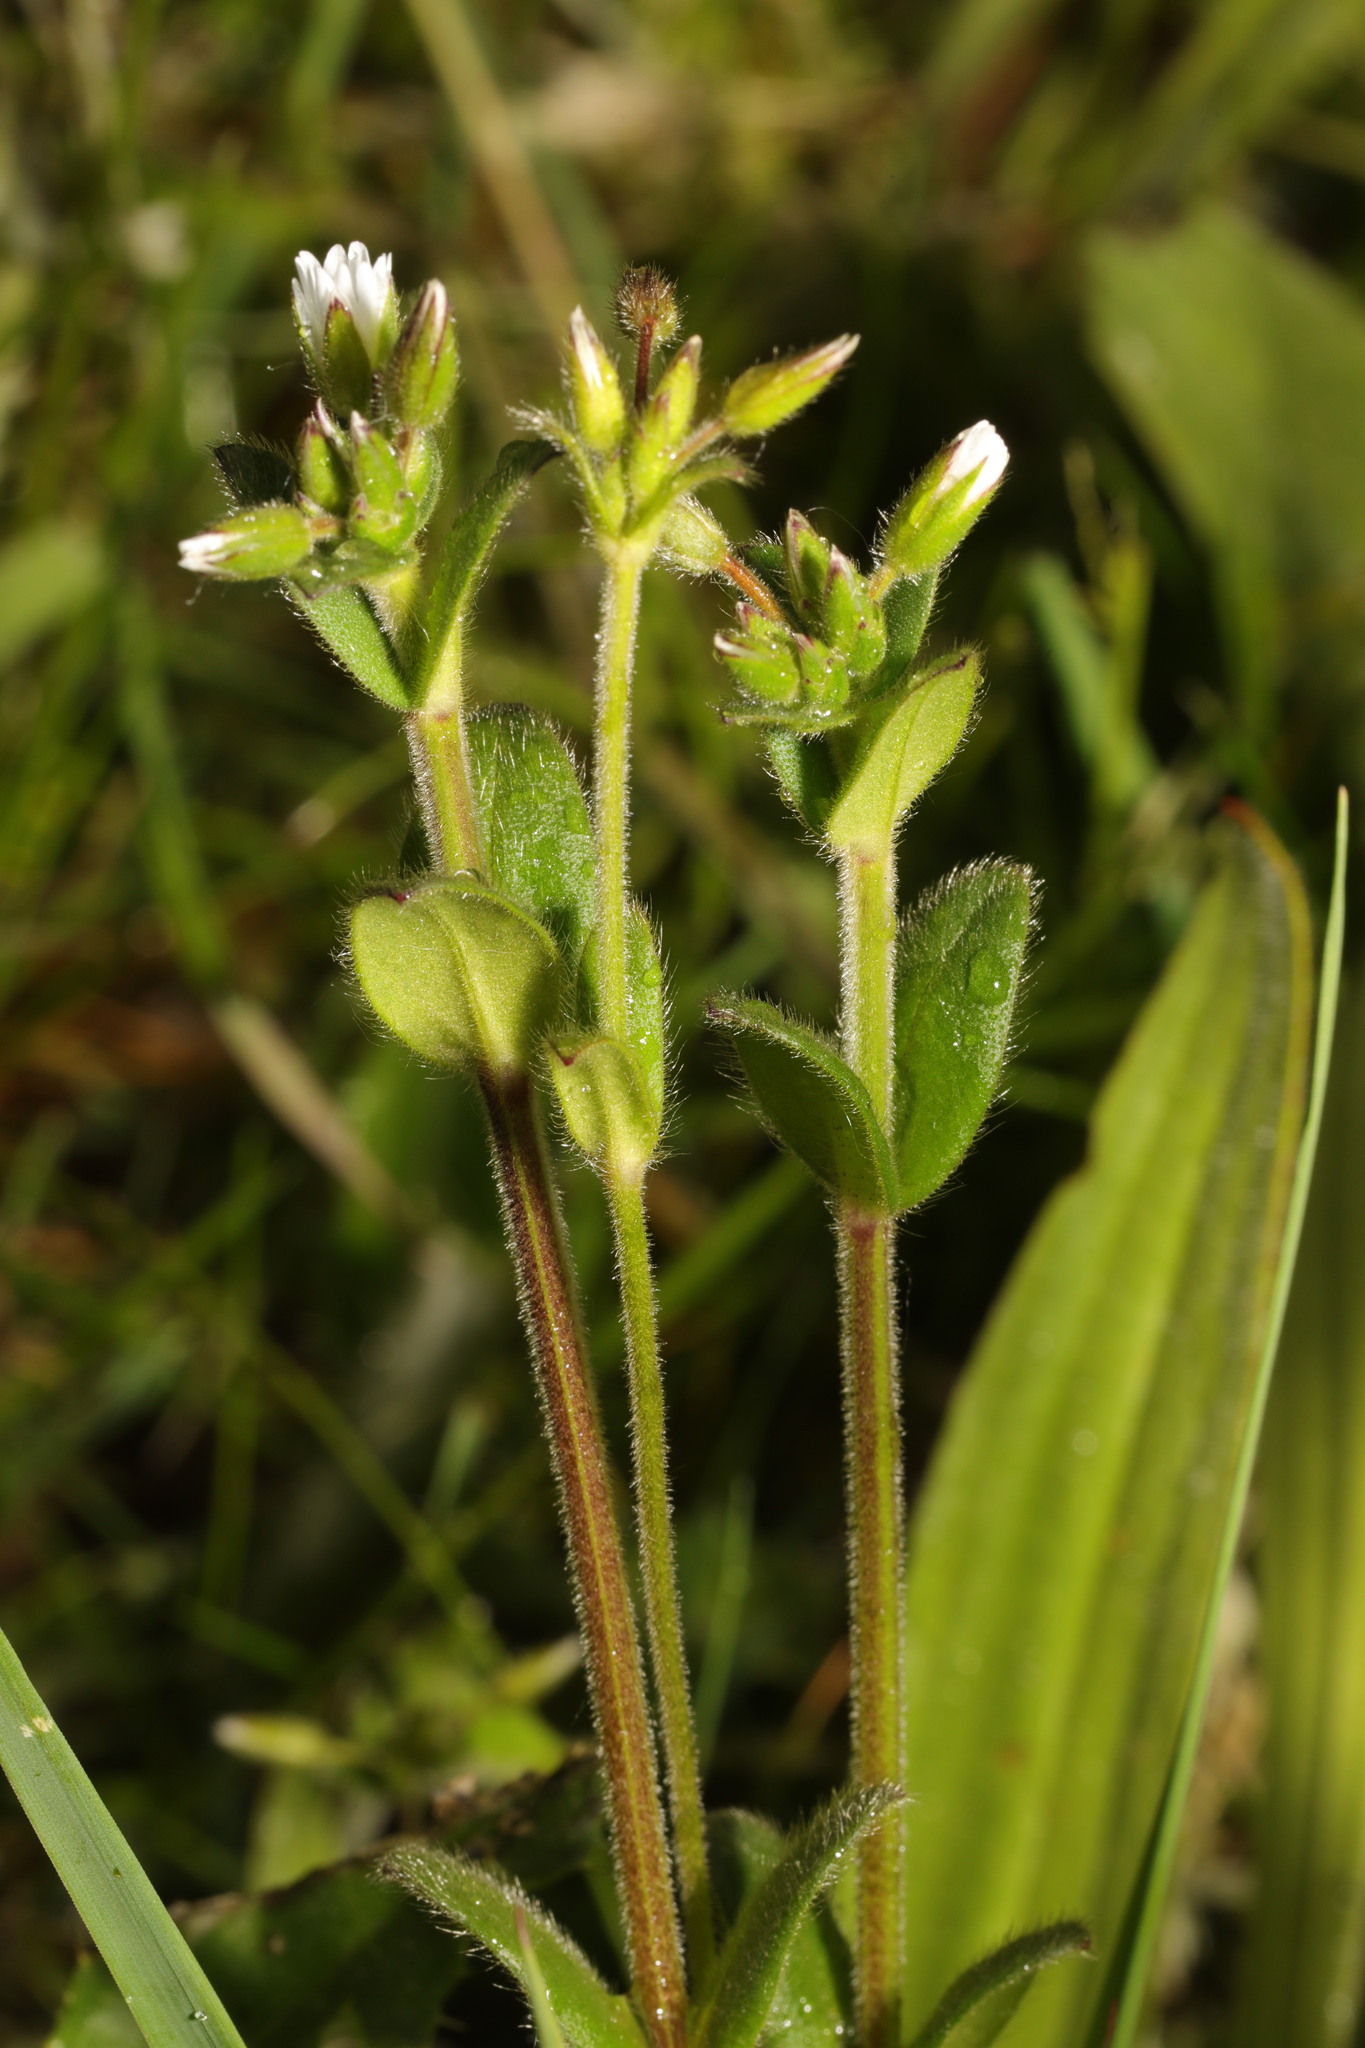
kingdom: Plantae
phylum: Tracheophyta
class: Magnoliopsida
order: Caryophyllales
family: Caryophyllaceae
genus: Cerastium
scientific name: Cerastium fontanum
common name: Common mouse-ear
